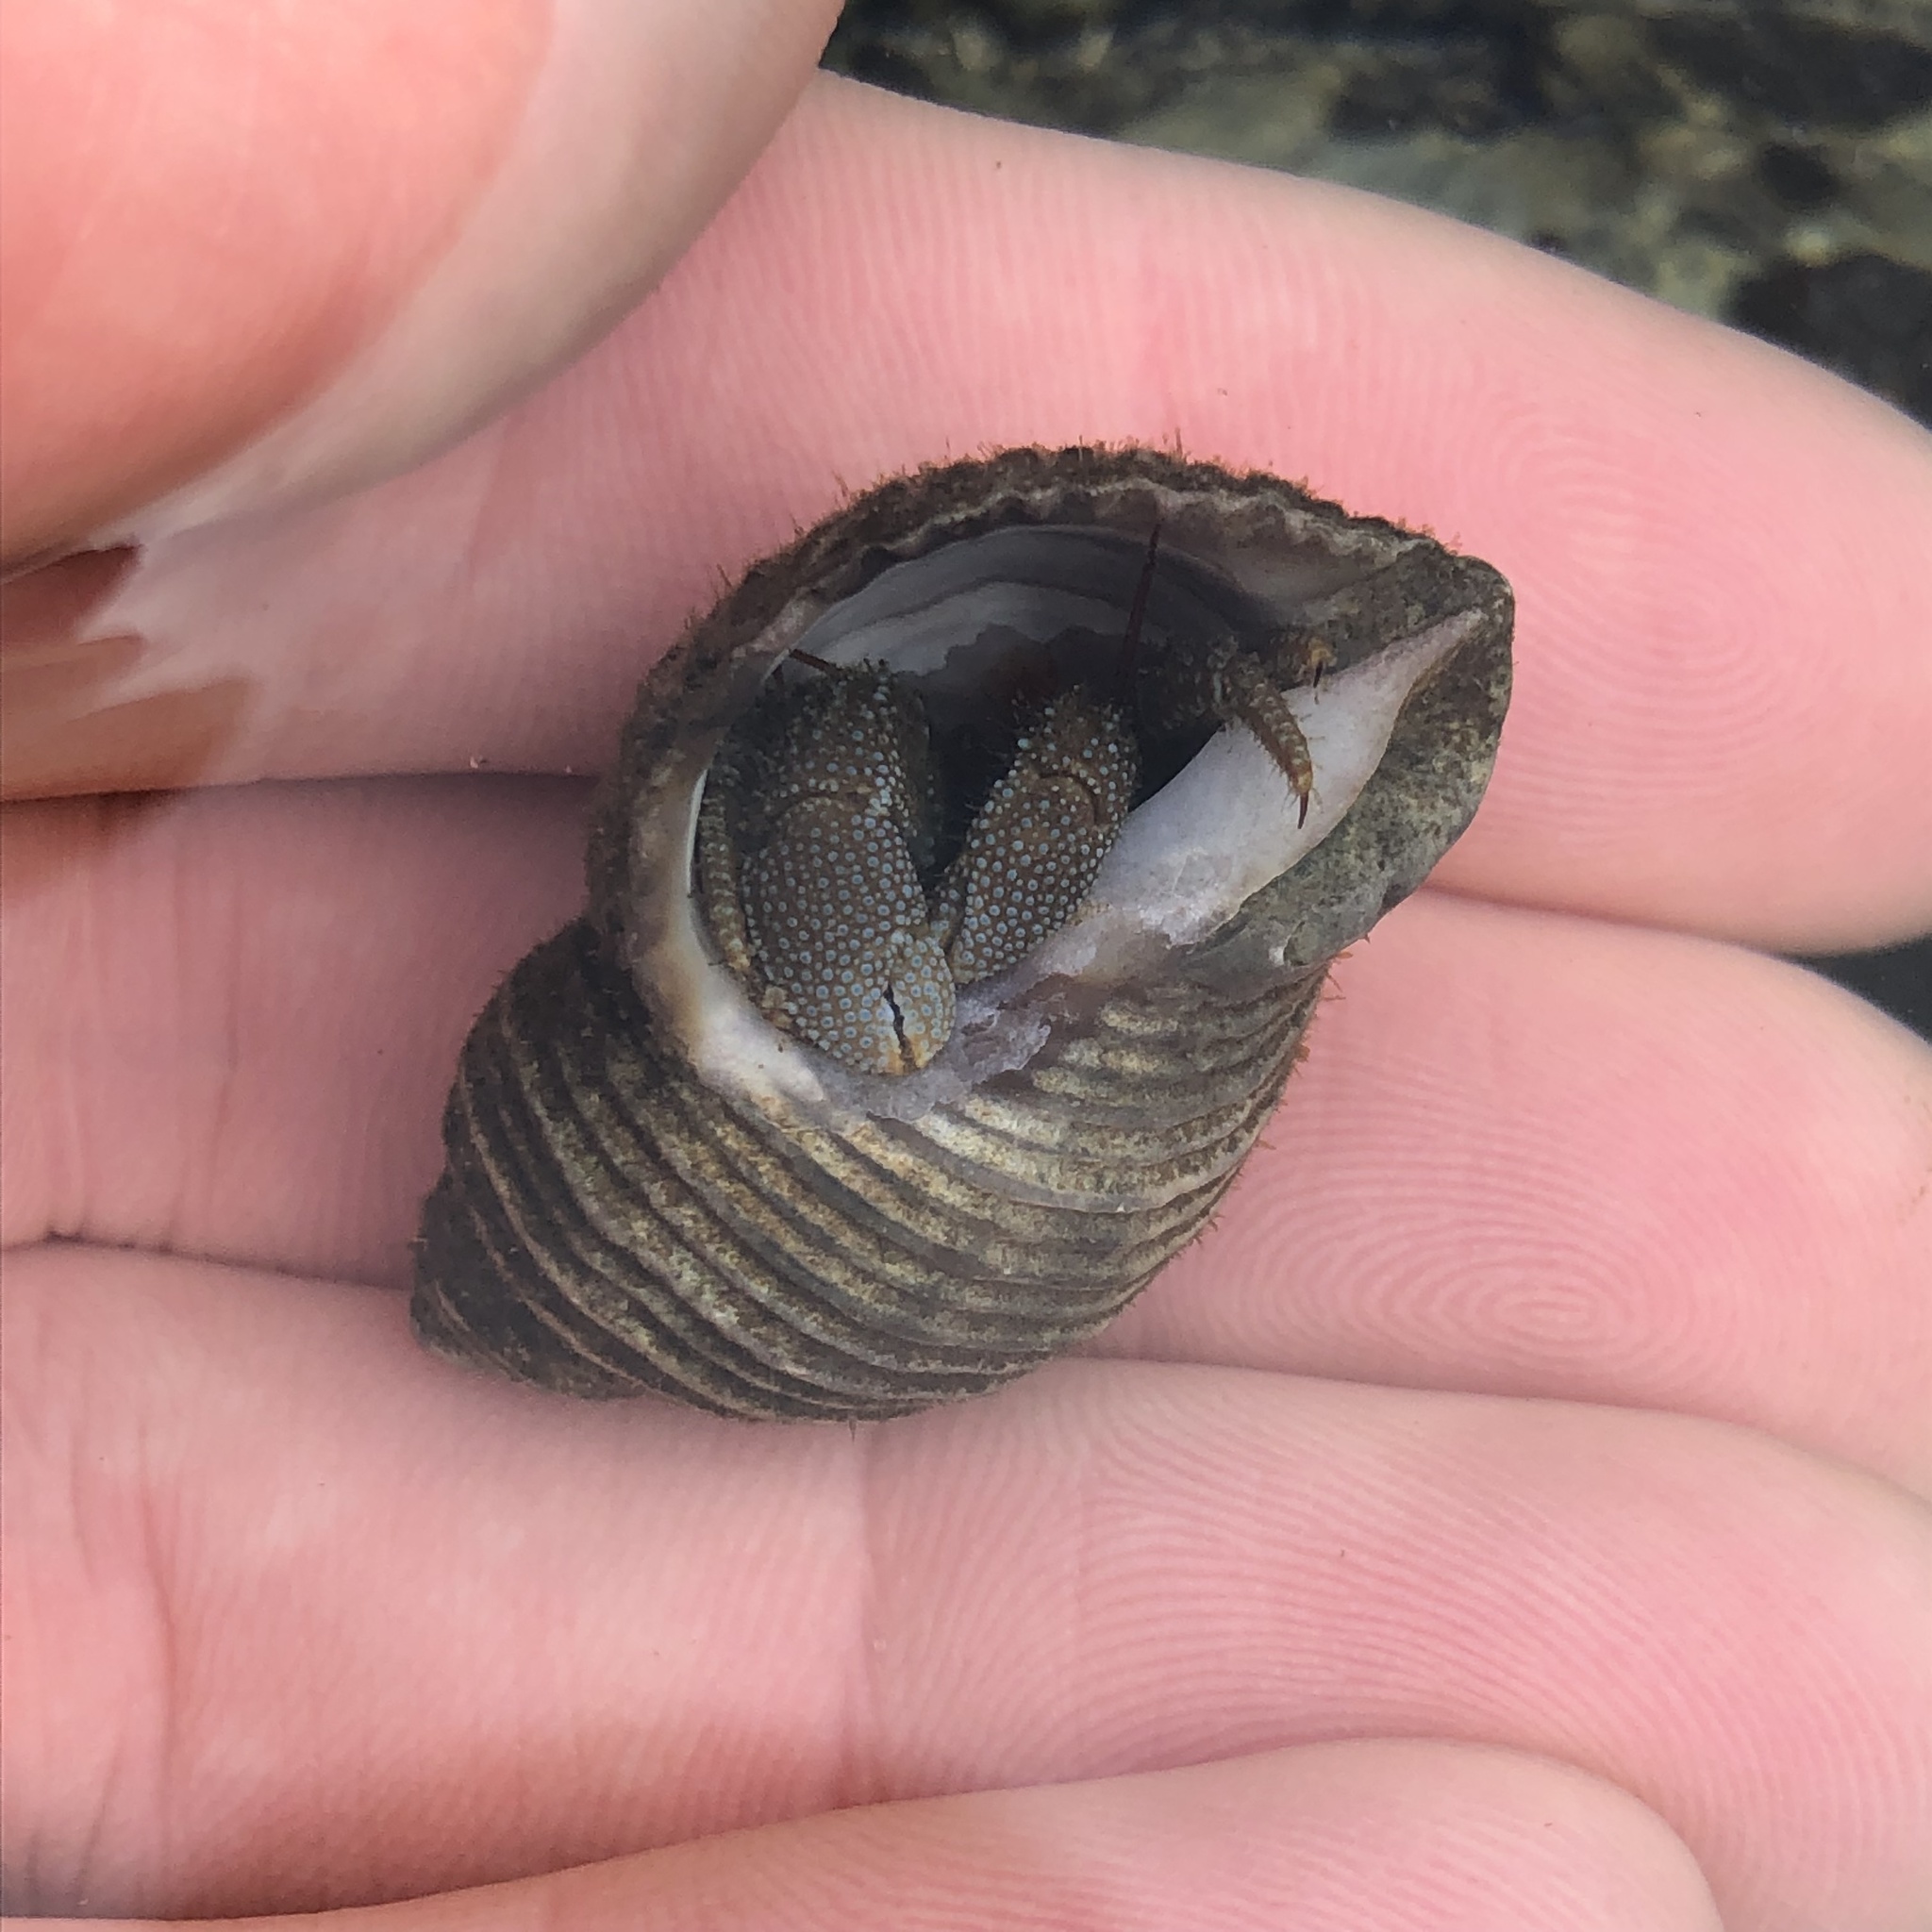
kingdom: Animalia
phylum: Arthropoda
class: Malacostraca
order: Decapoda
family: Paguridae
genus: Pagurus
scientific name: Pagurus granosimanus
